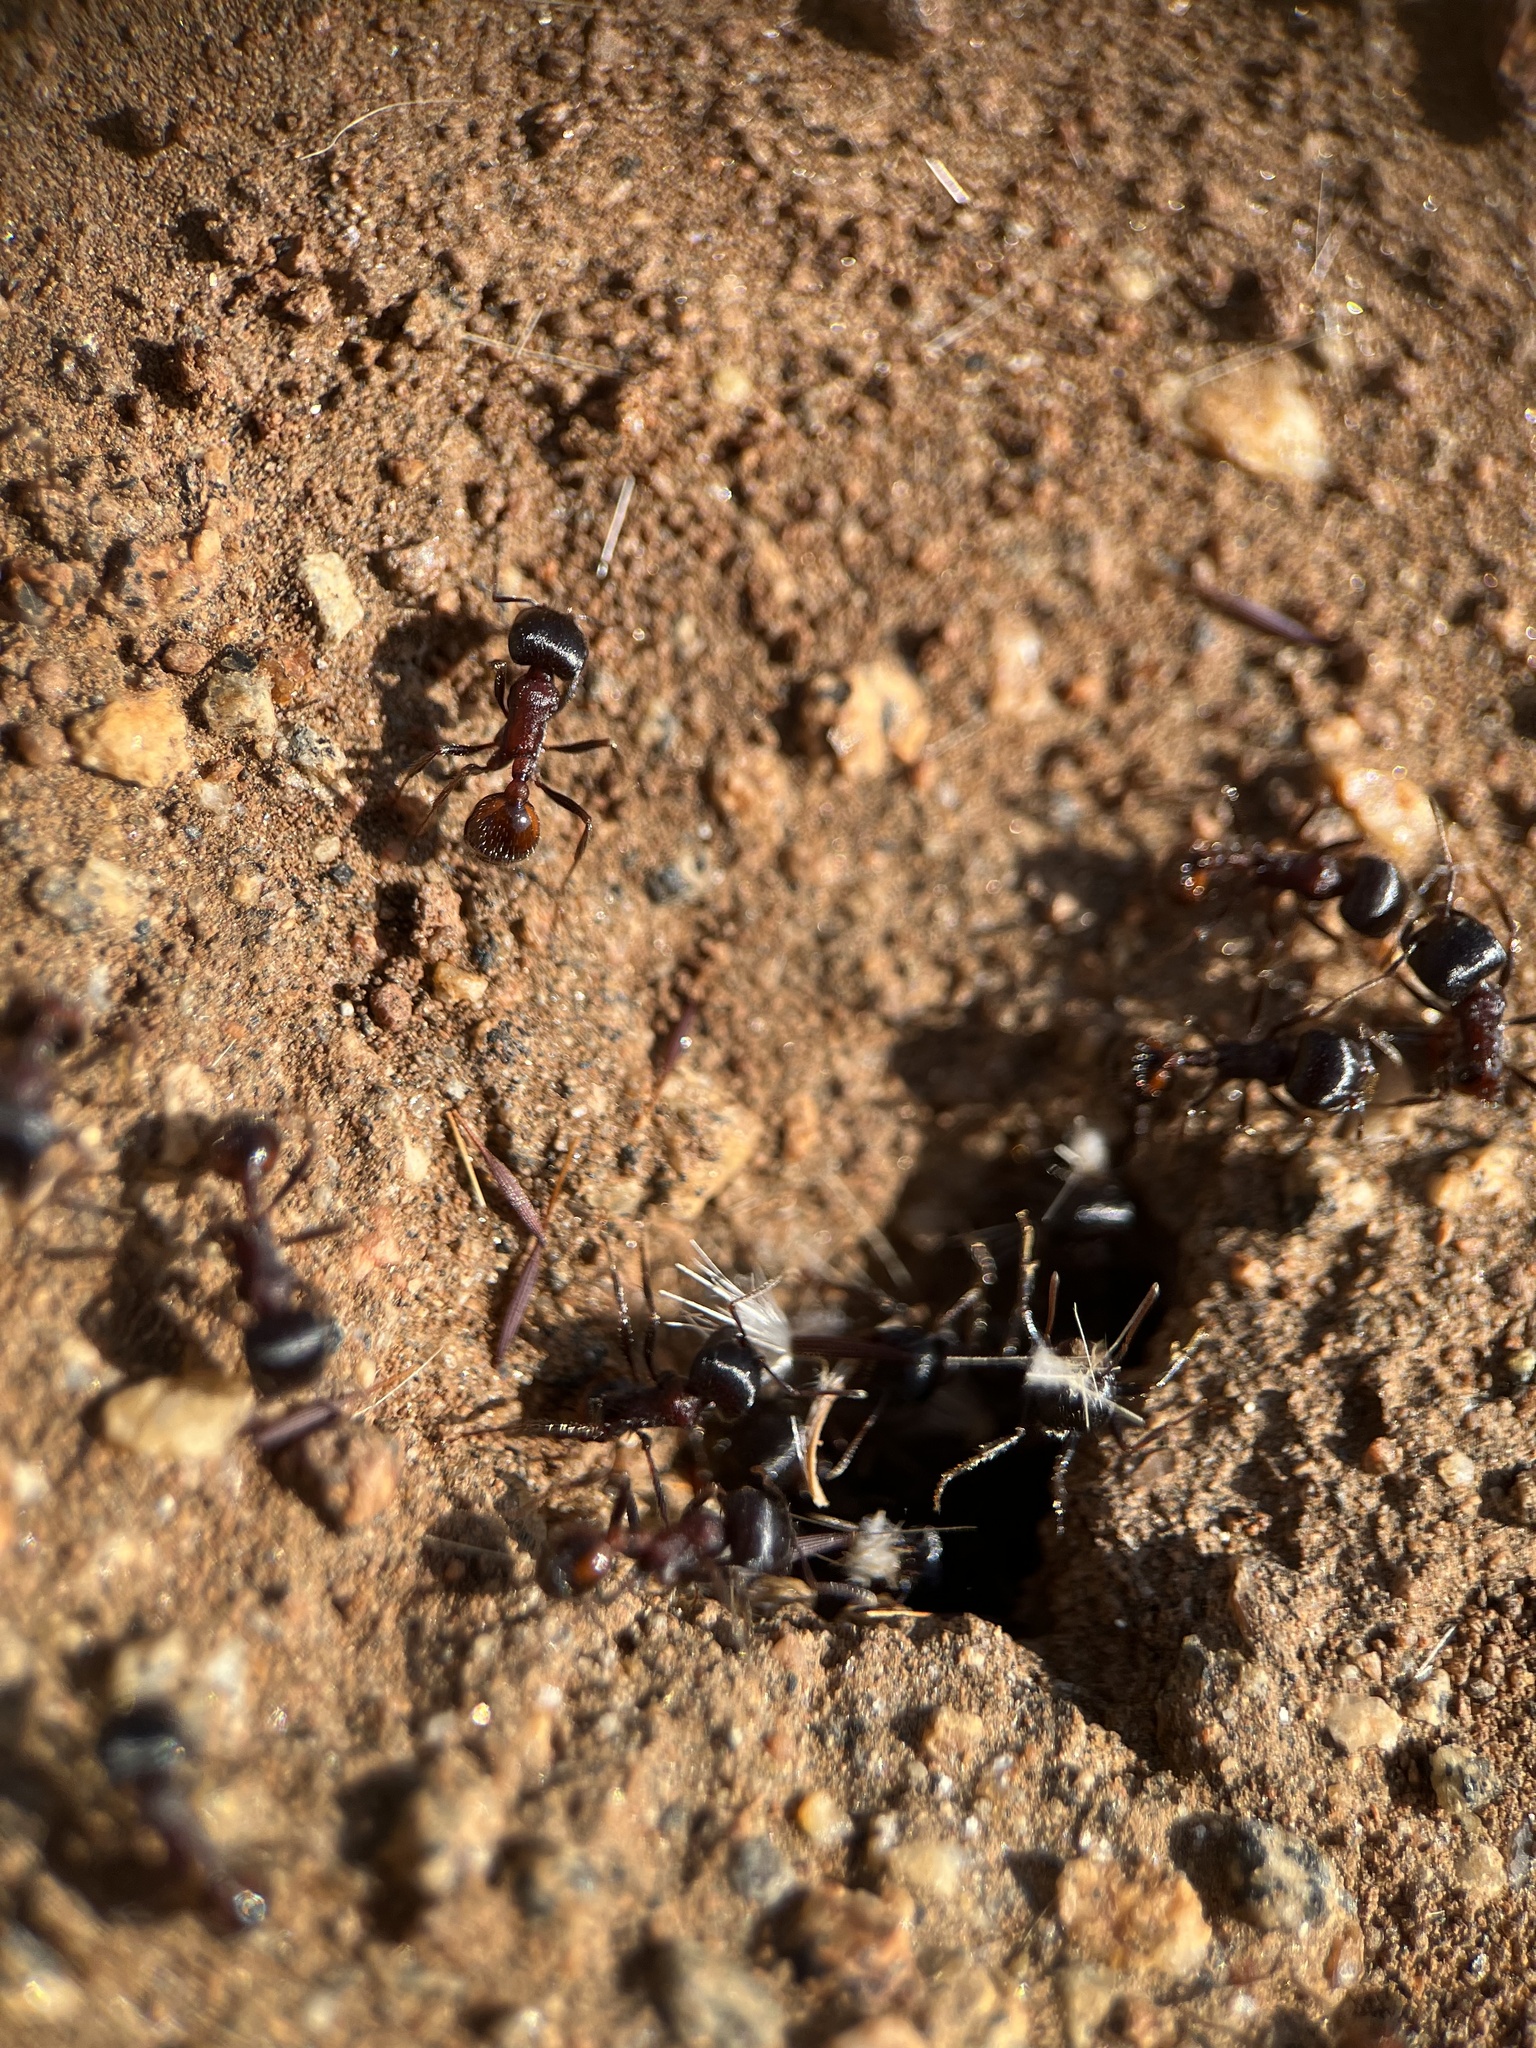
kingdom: Animalia
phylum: Arthropoda
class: Insecta
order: Hymenoptera
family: Formicidae
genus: Pogonomyrmex
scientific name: Pogonomyrmex rugosus
